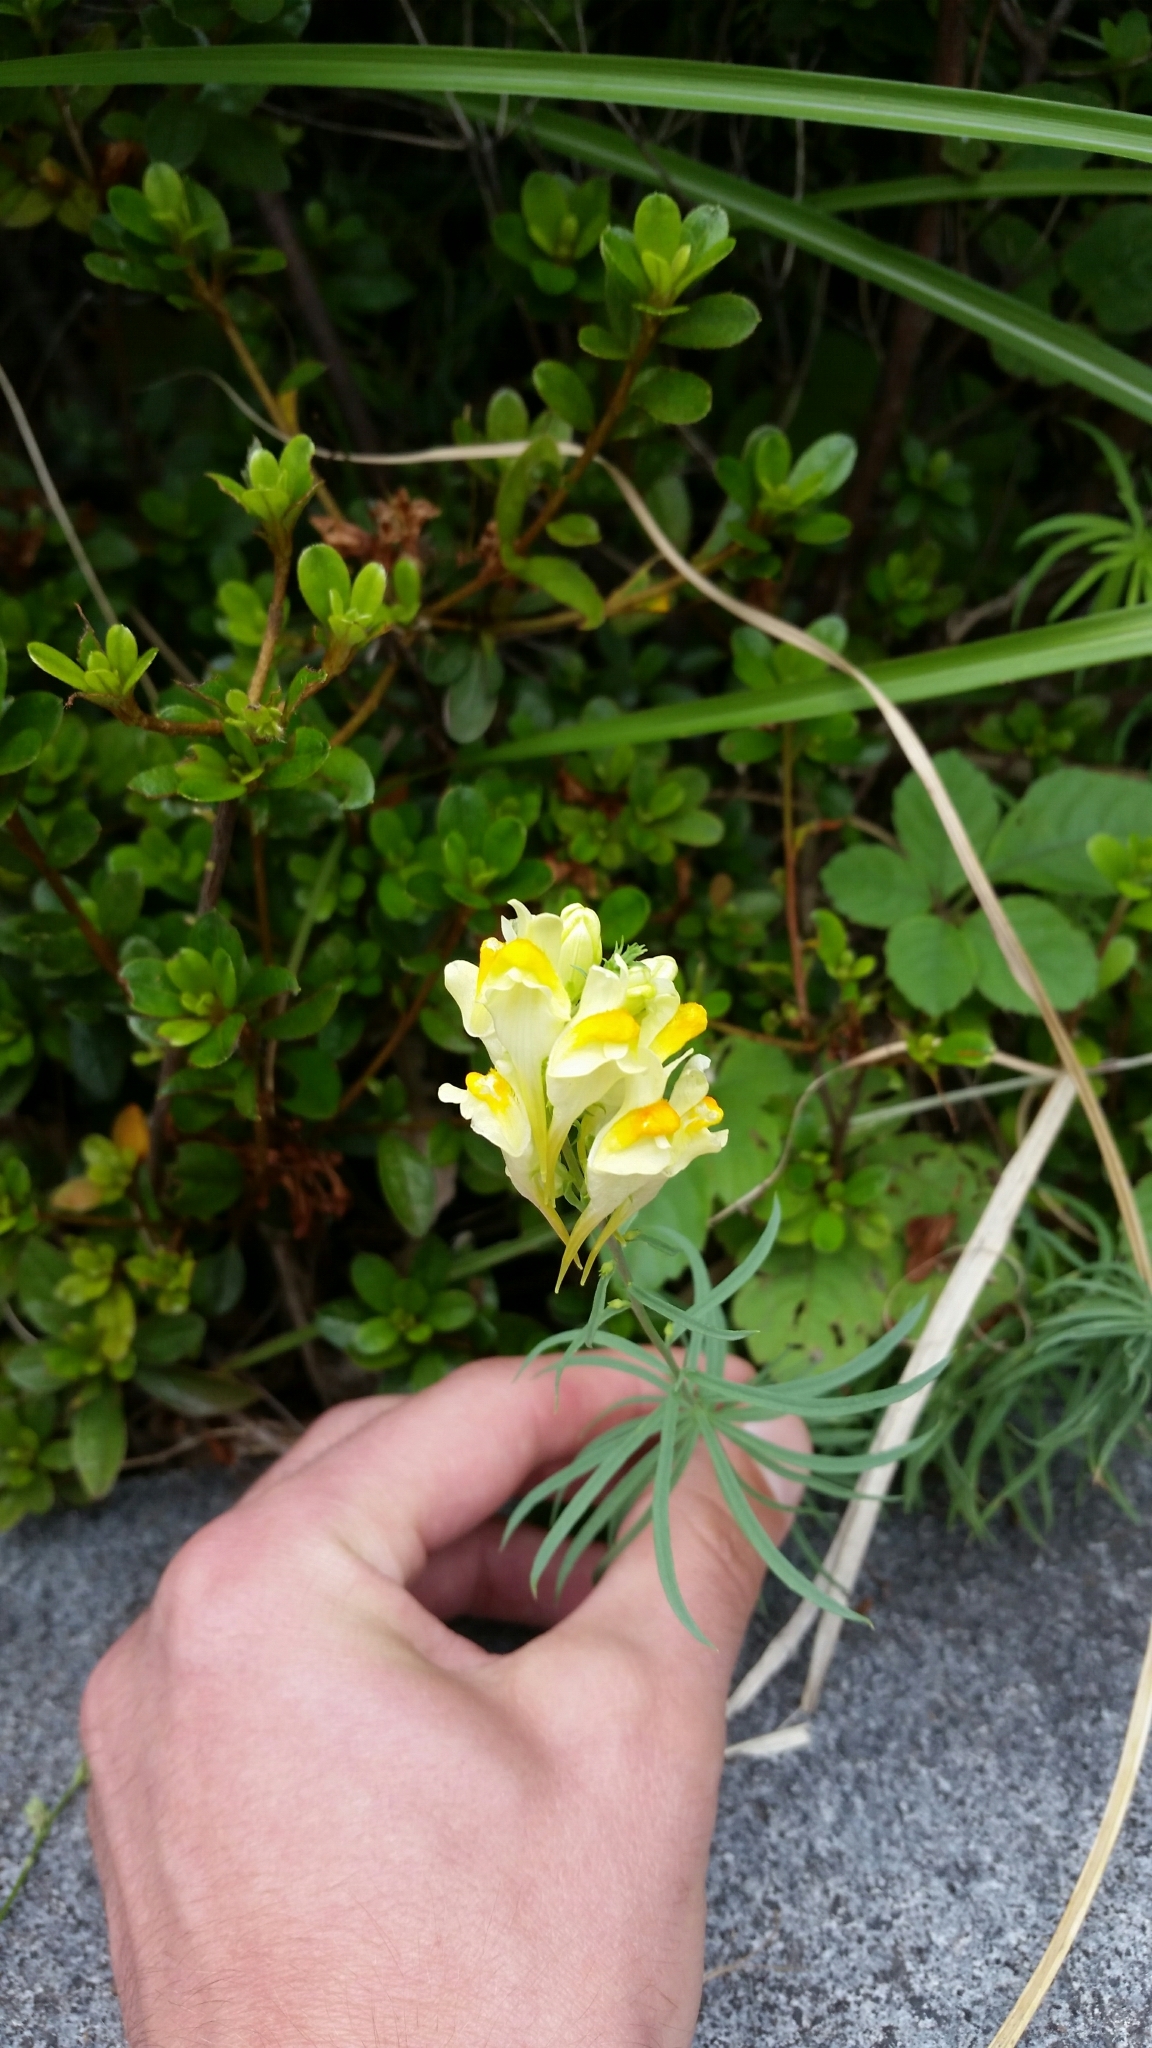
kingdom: Plantae
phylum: Tracheophyta
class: Magnoliopsida
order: Lamiales
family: Plantaginaceae
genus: Linaria
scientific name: Linaria vulgaris
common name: Butter and eggs
